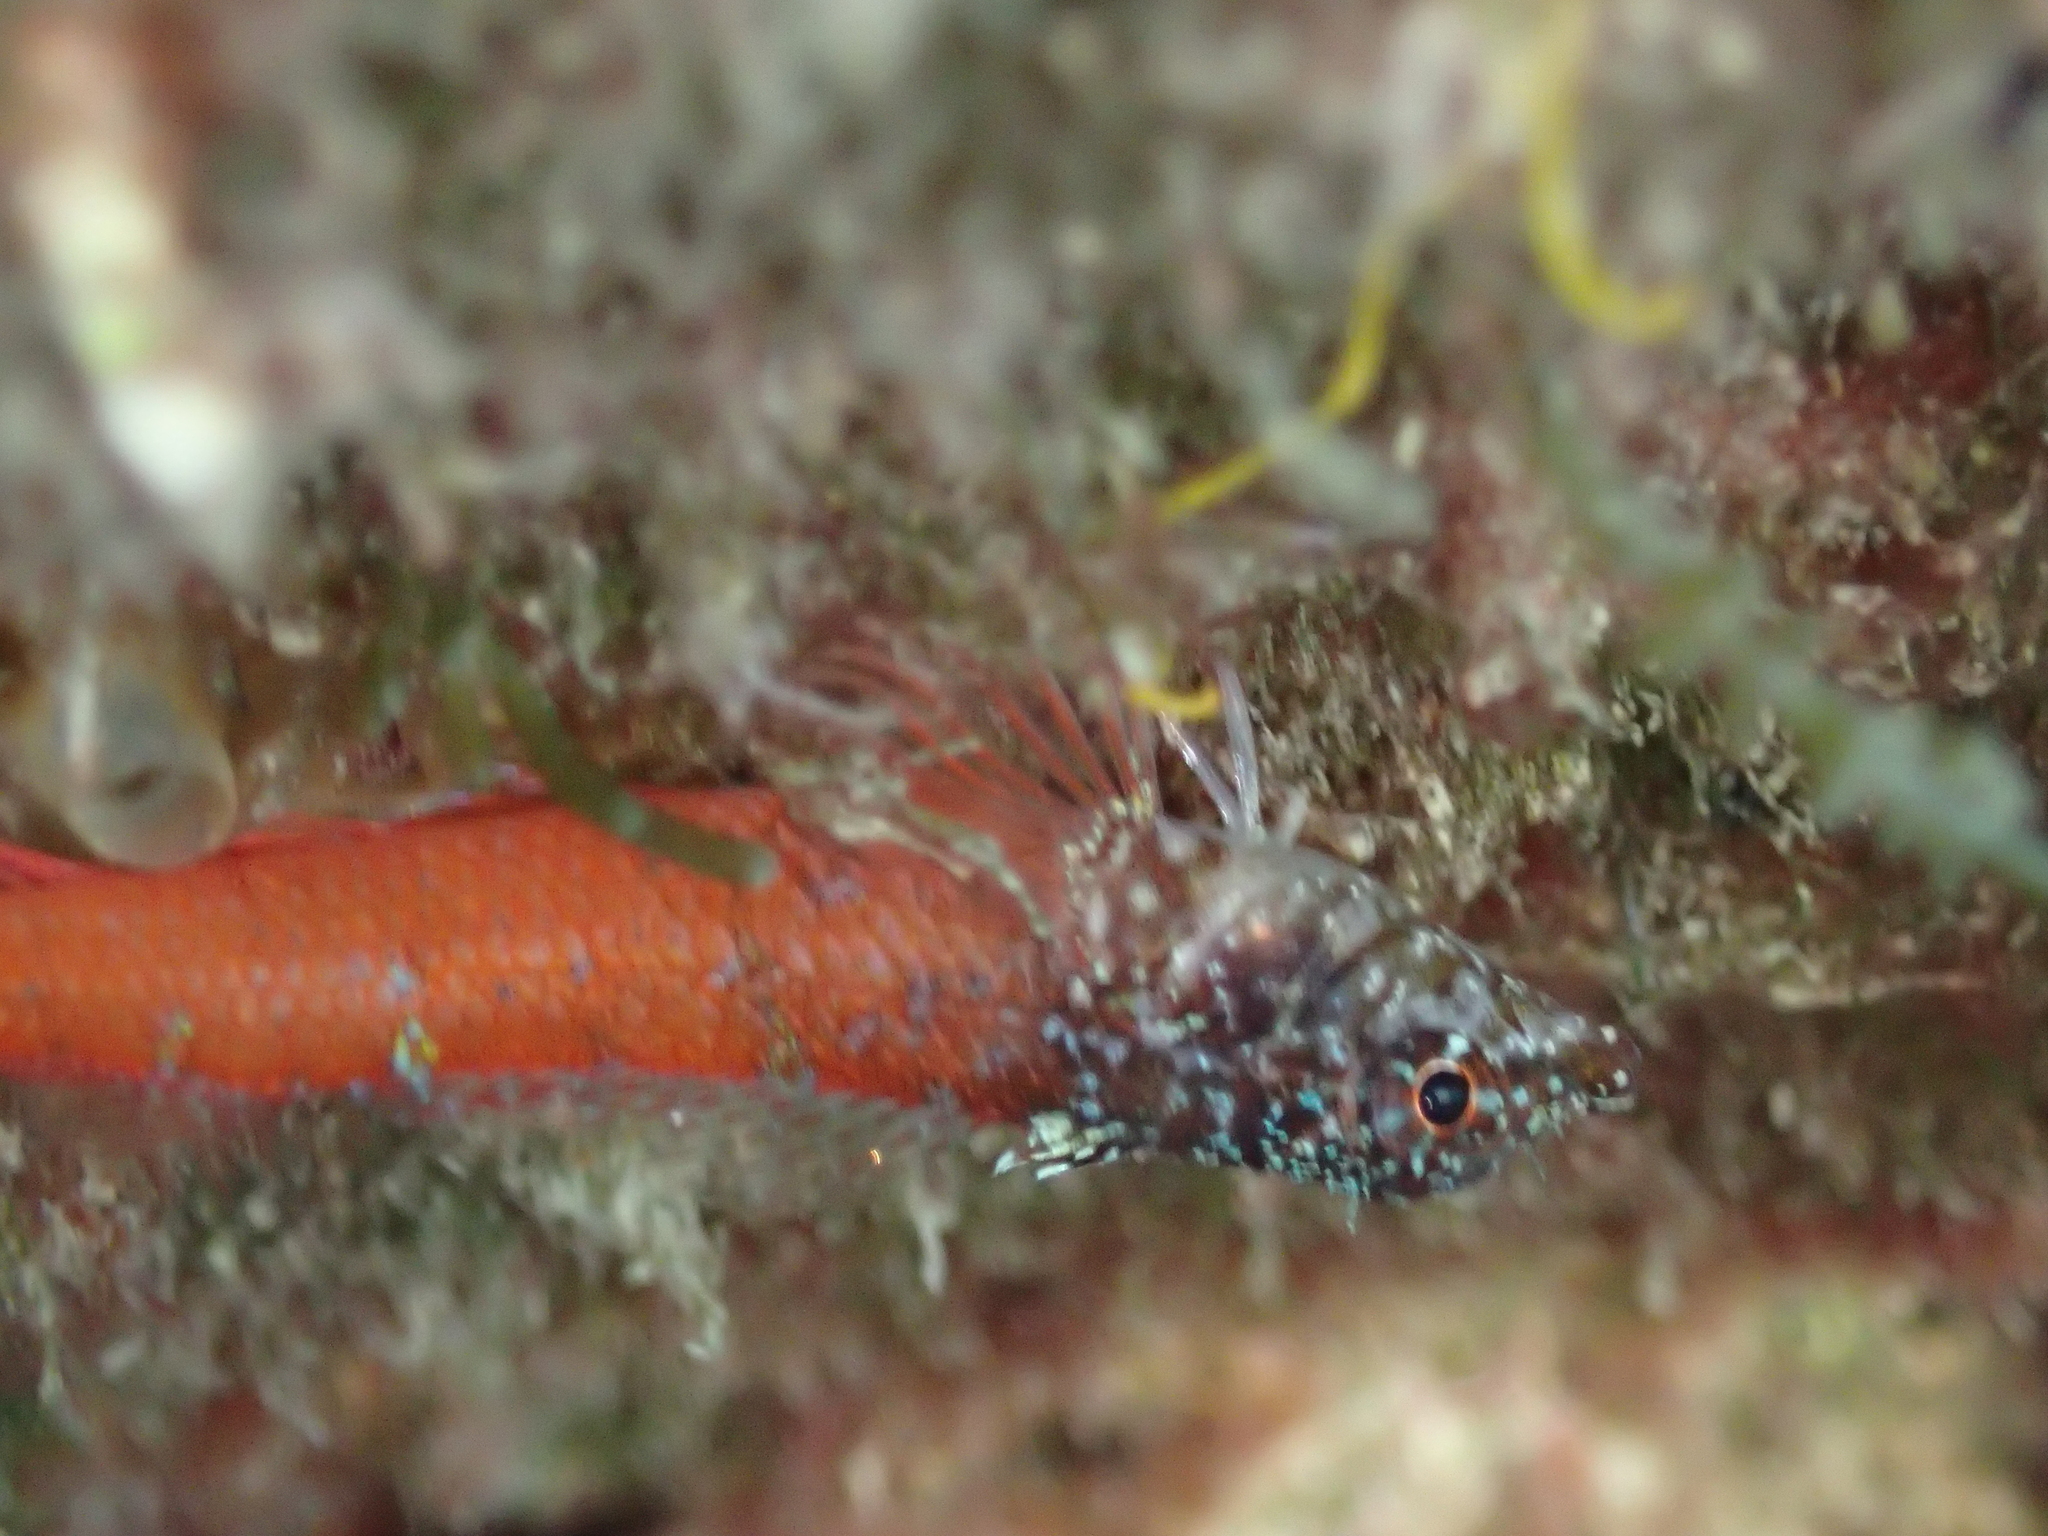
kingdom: Animalia
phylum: Chordata
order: Perciformes
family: Tripterygiidae
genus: Tripterygion
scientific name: Tripterygion melanurum
